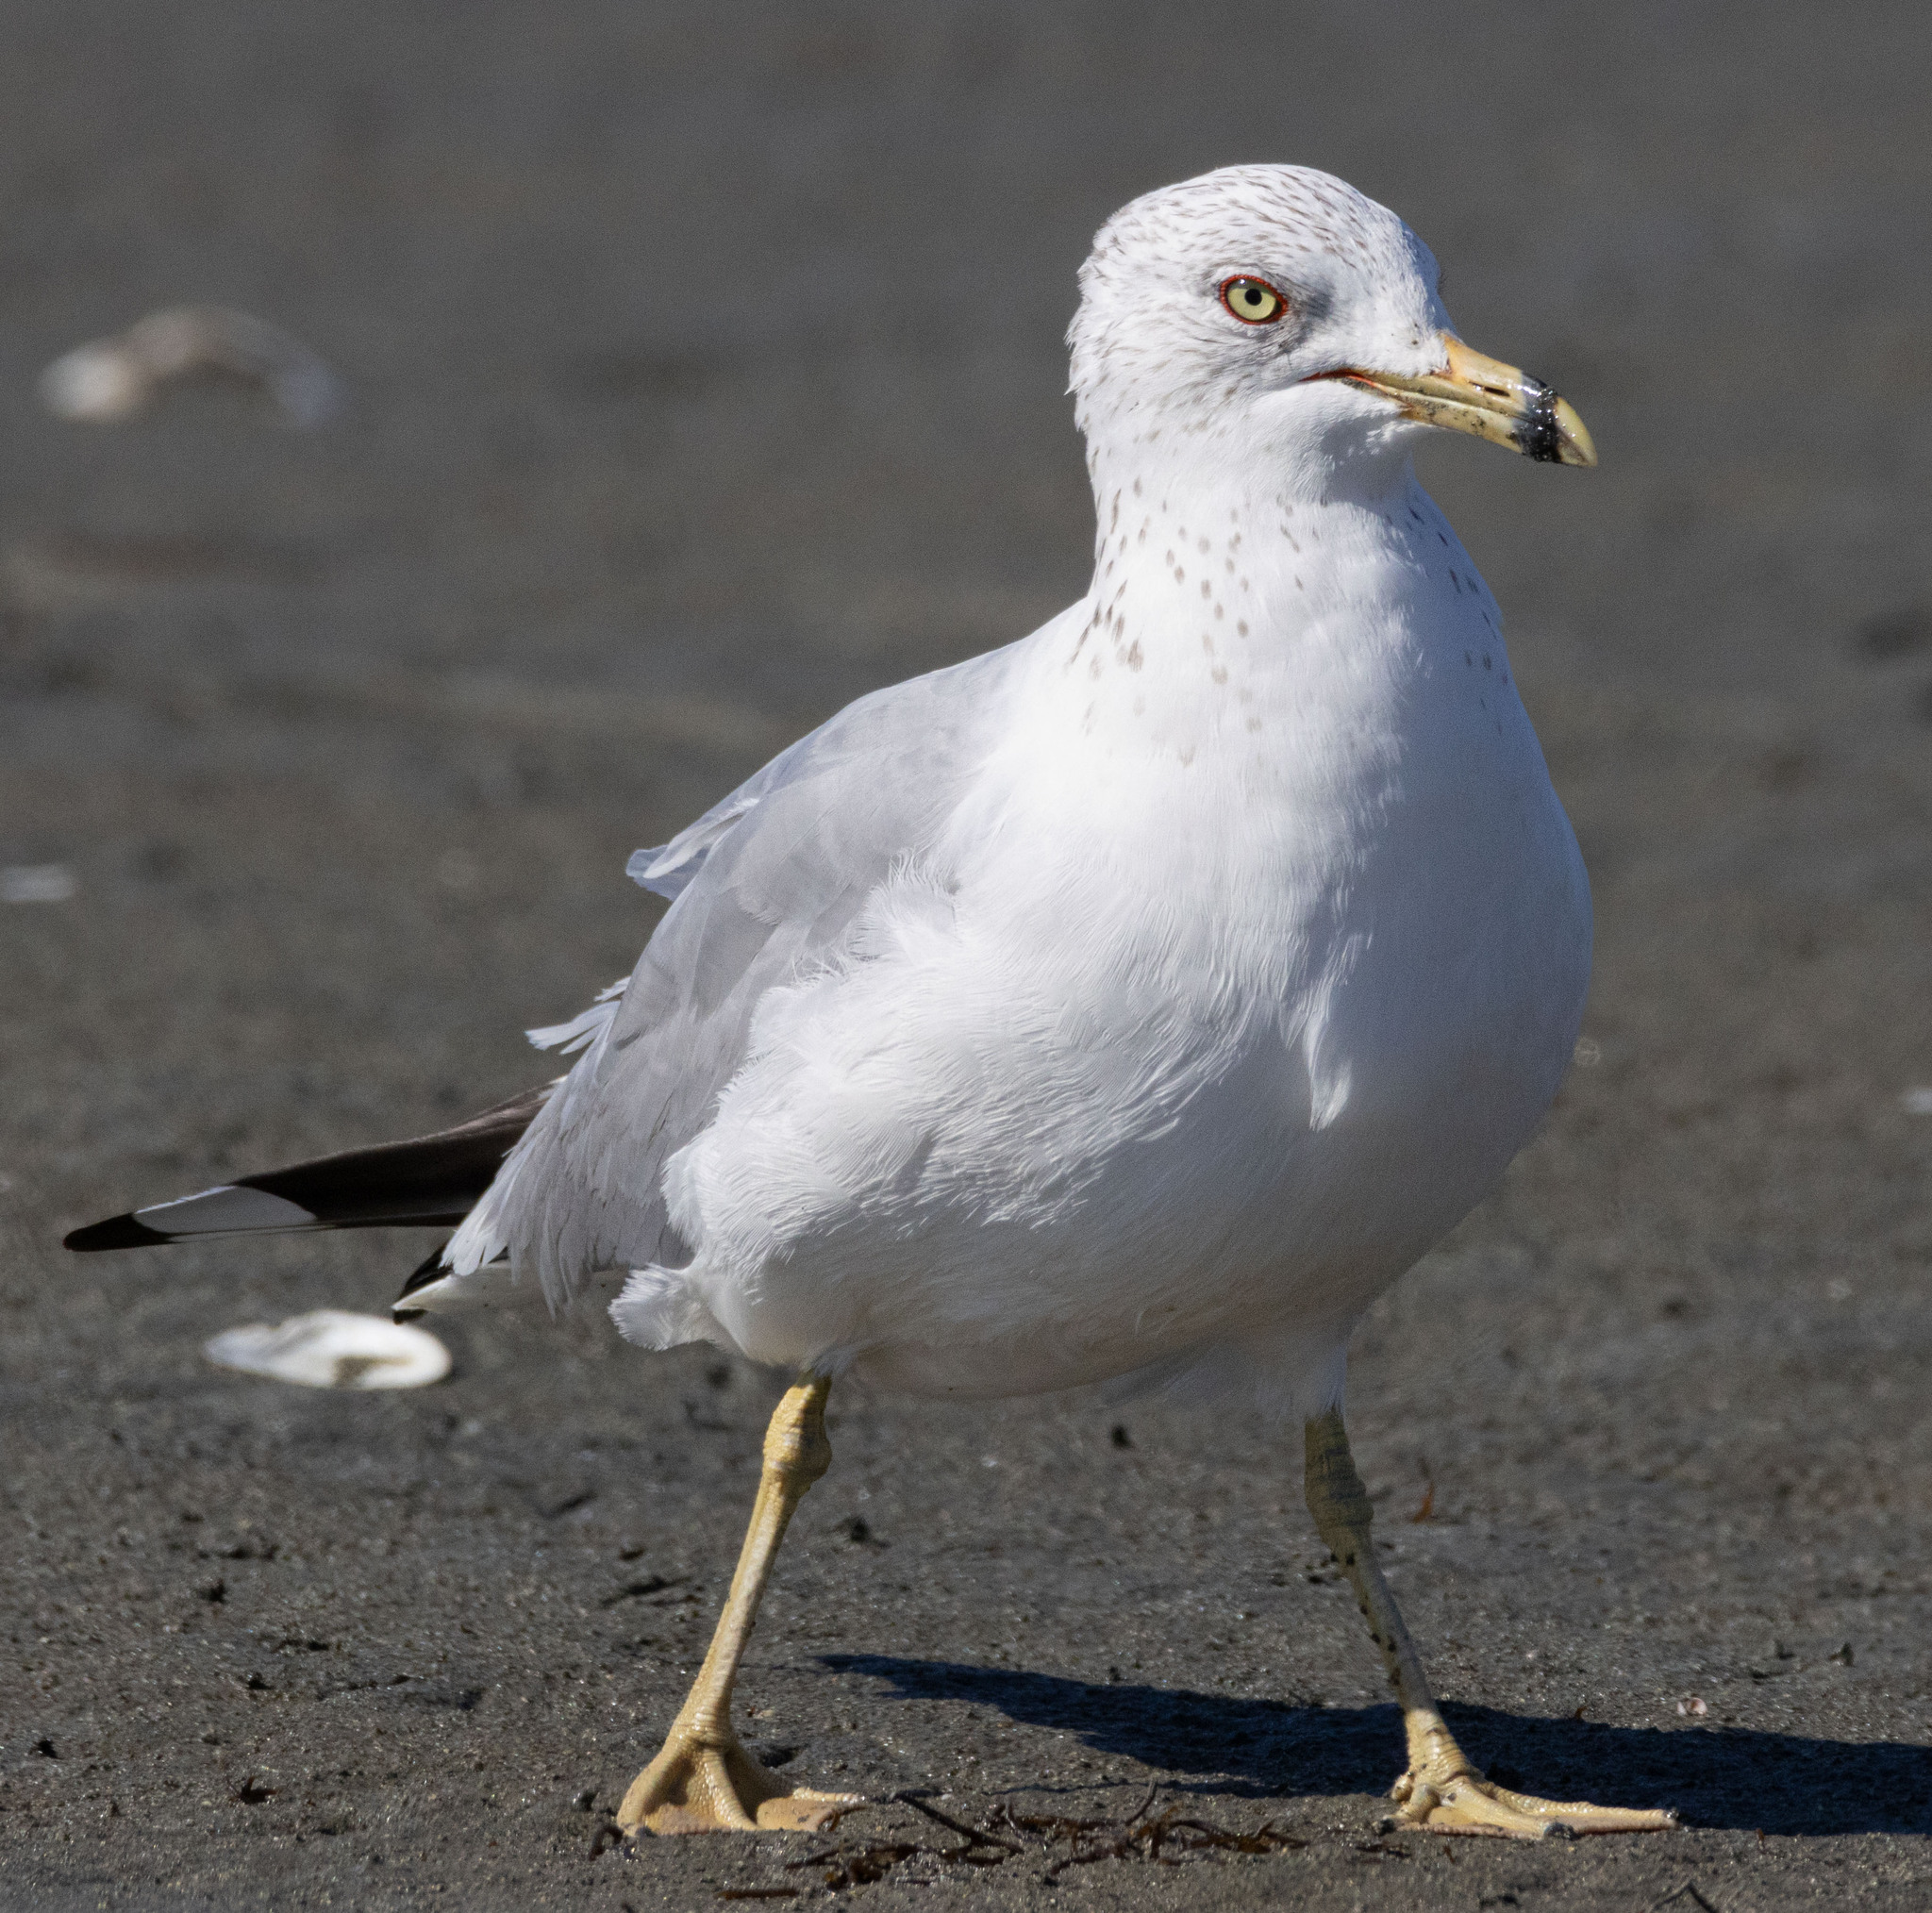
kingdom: Animalia
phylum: Chordata
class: Aves
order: Charadriiformes
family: Laridae
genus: Larus
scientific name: Larus delawarensis
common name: Ring-billed gull
